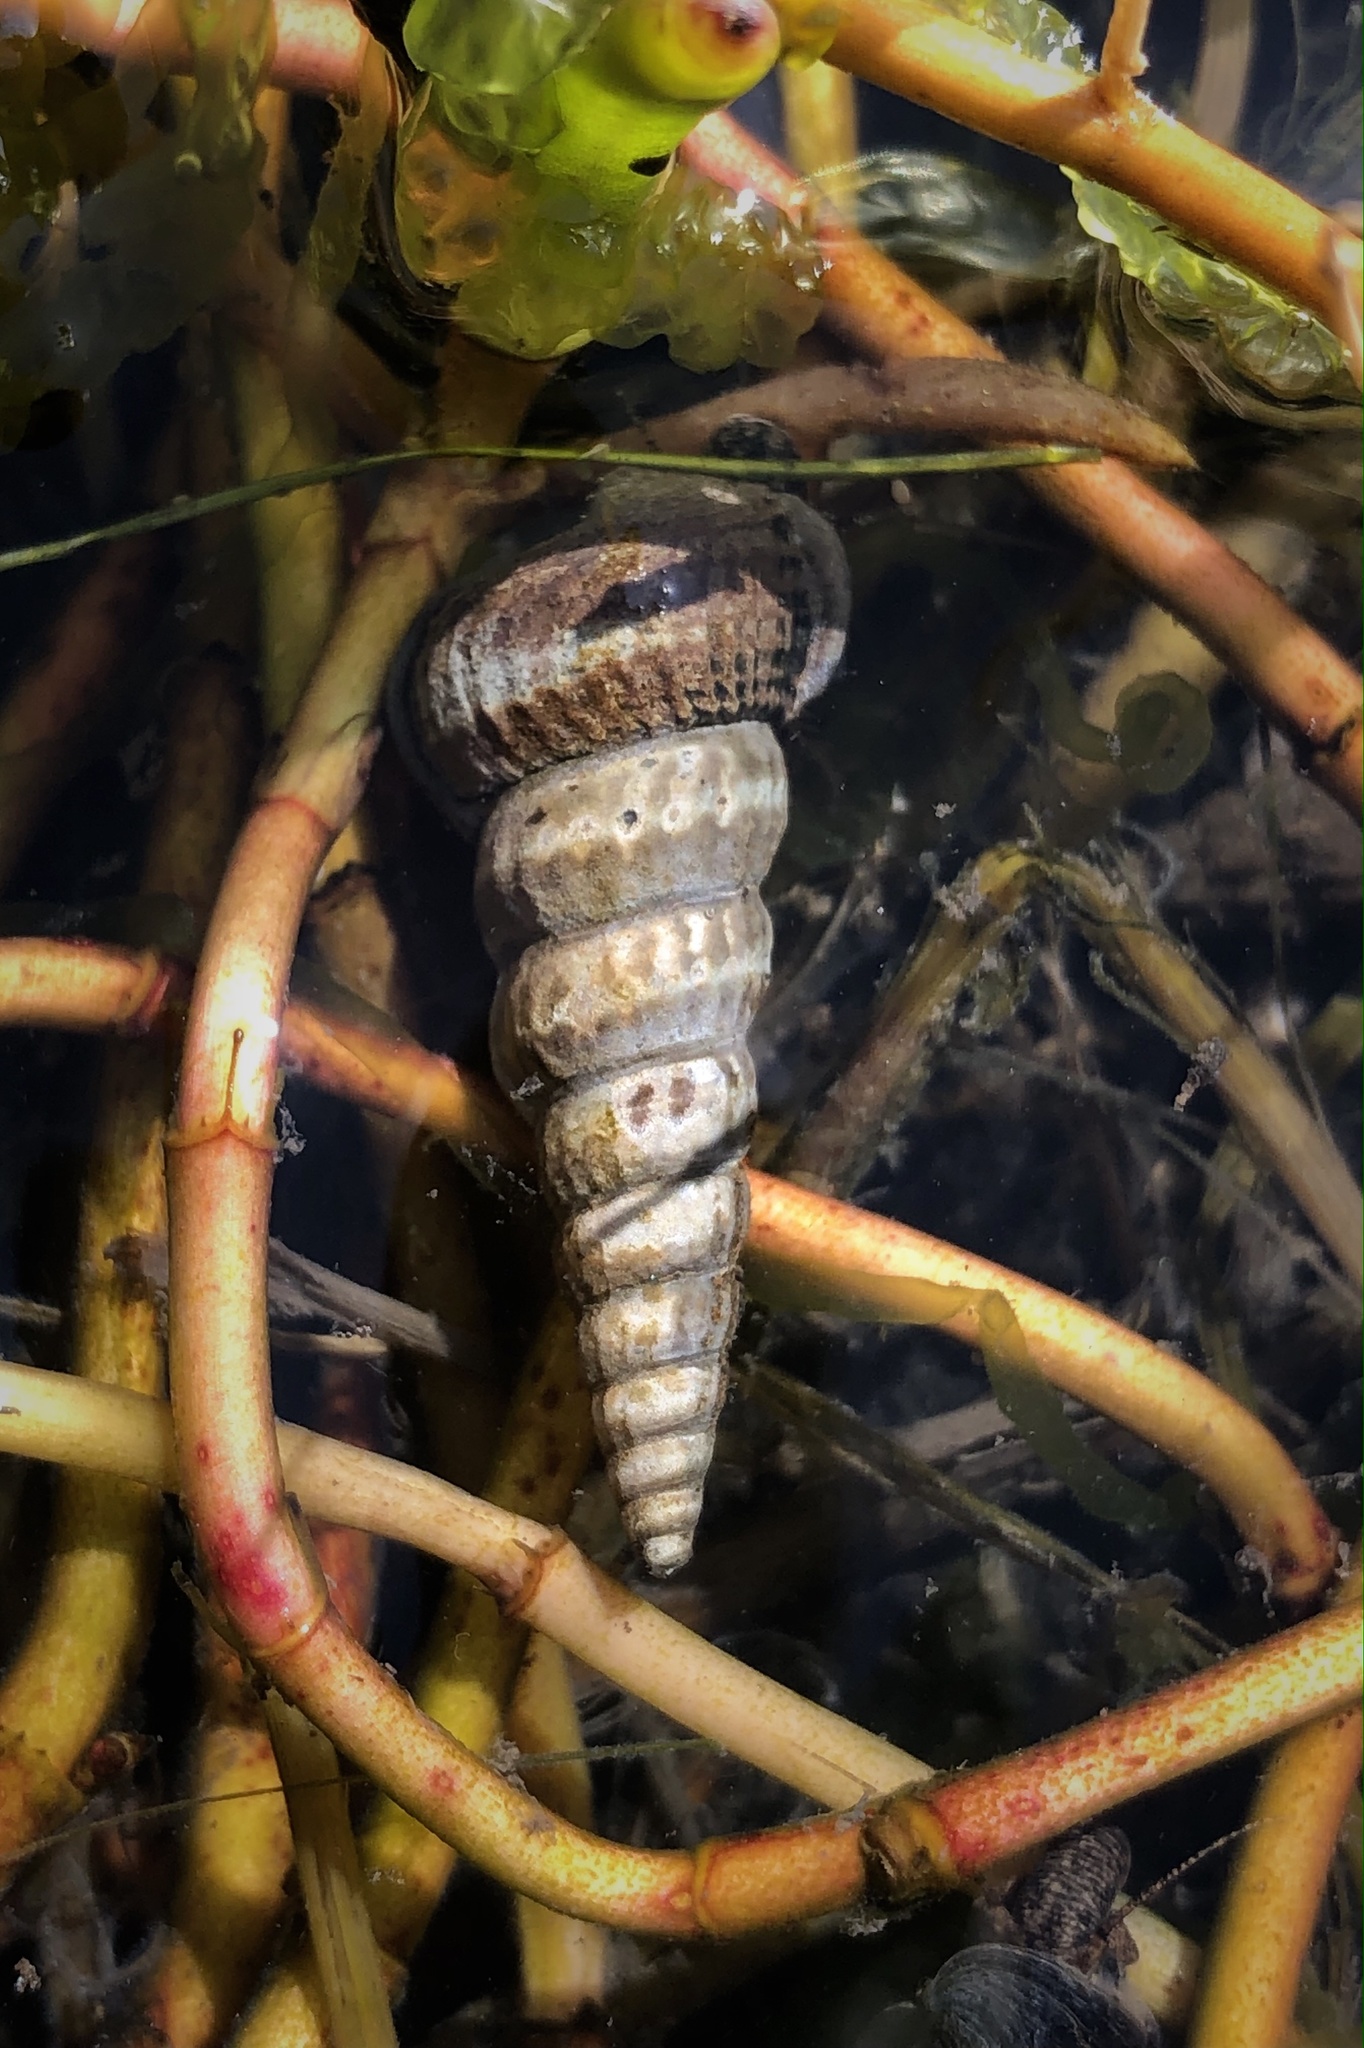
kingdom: Animalia
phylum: Mollusca
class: Gastropoda
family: Potamididae
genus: Cerithideopsis
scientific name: Cerithideopsis californica
